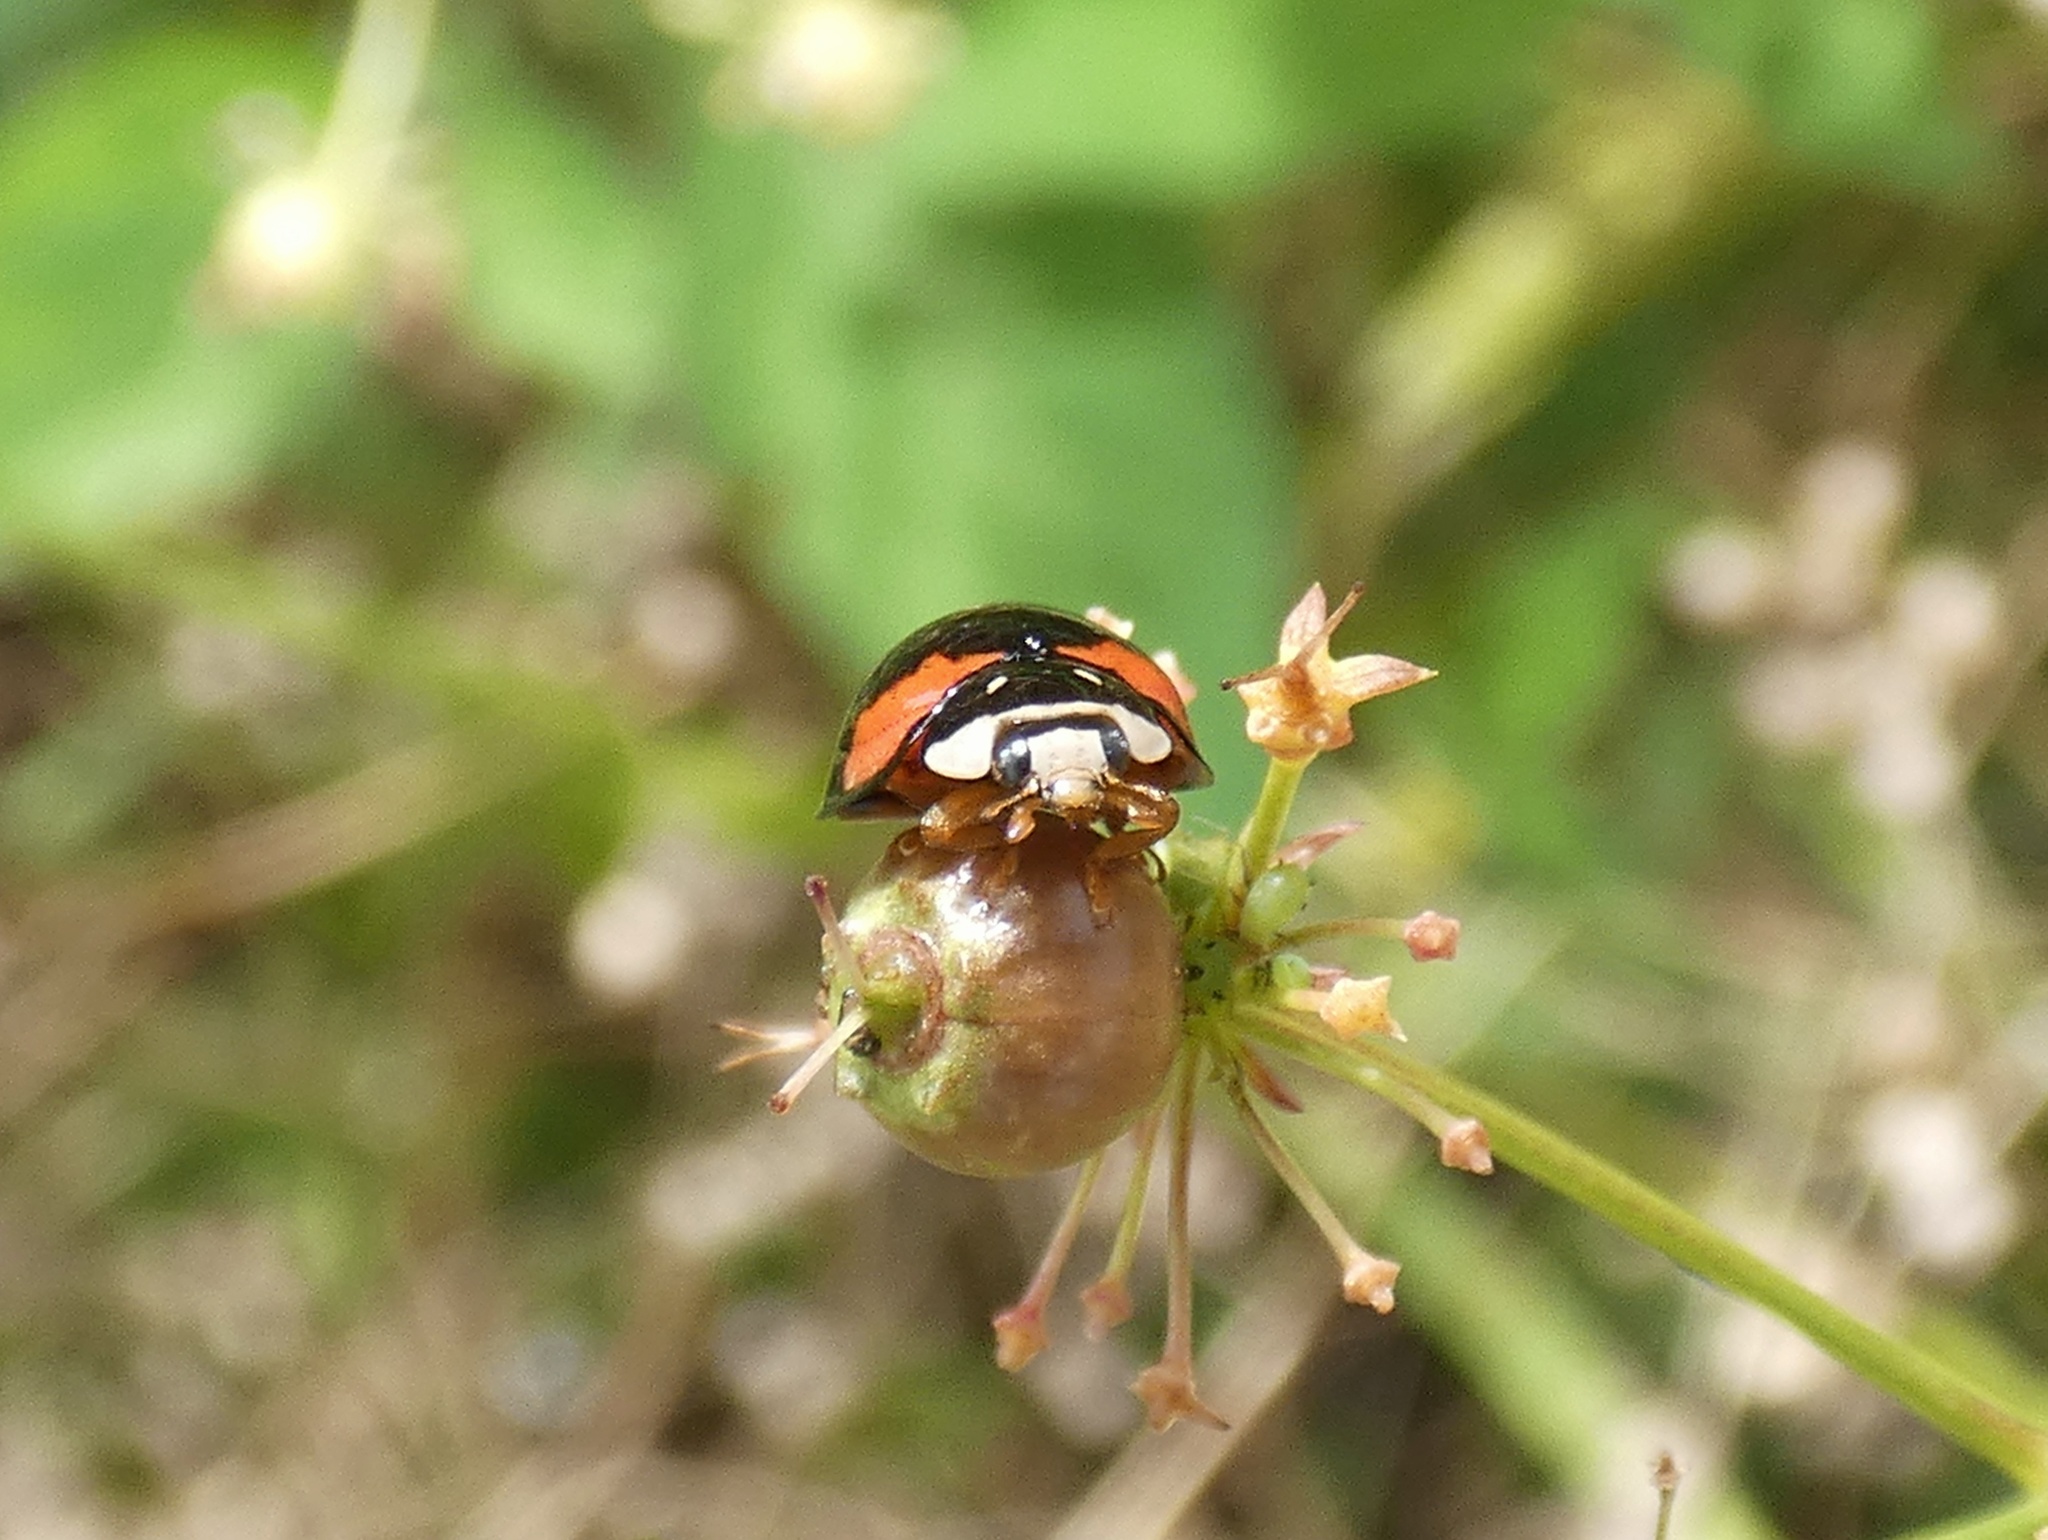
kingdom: Animalia
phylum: Arthropoda
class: Insecta
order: Coleoptera
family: Coccinellidae
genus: Cheilomenes
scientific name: Cheilomenes sexmaculata
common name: Ladybird beetle
